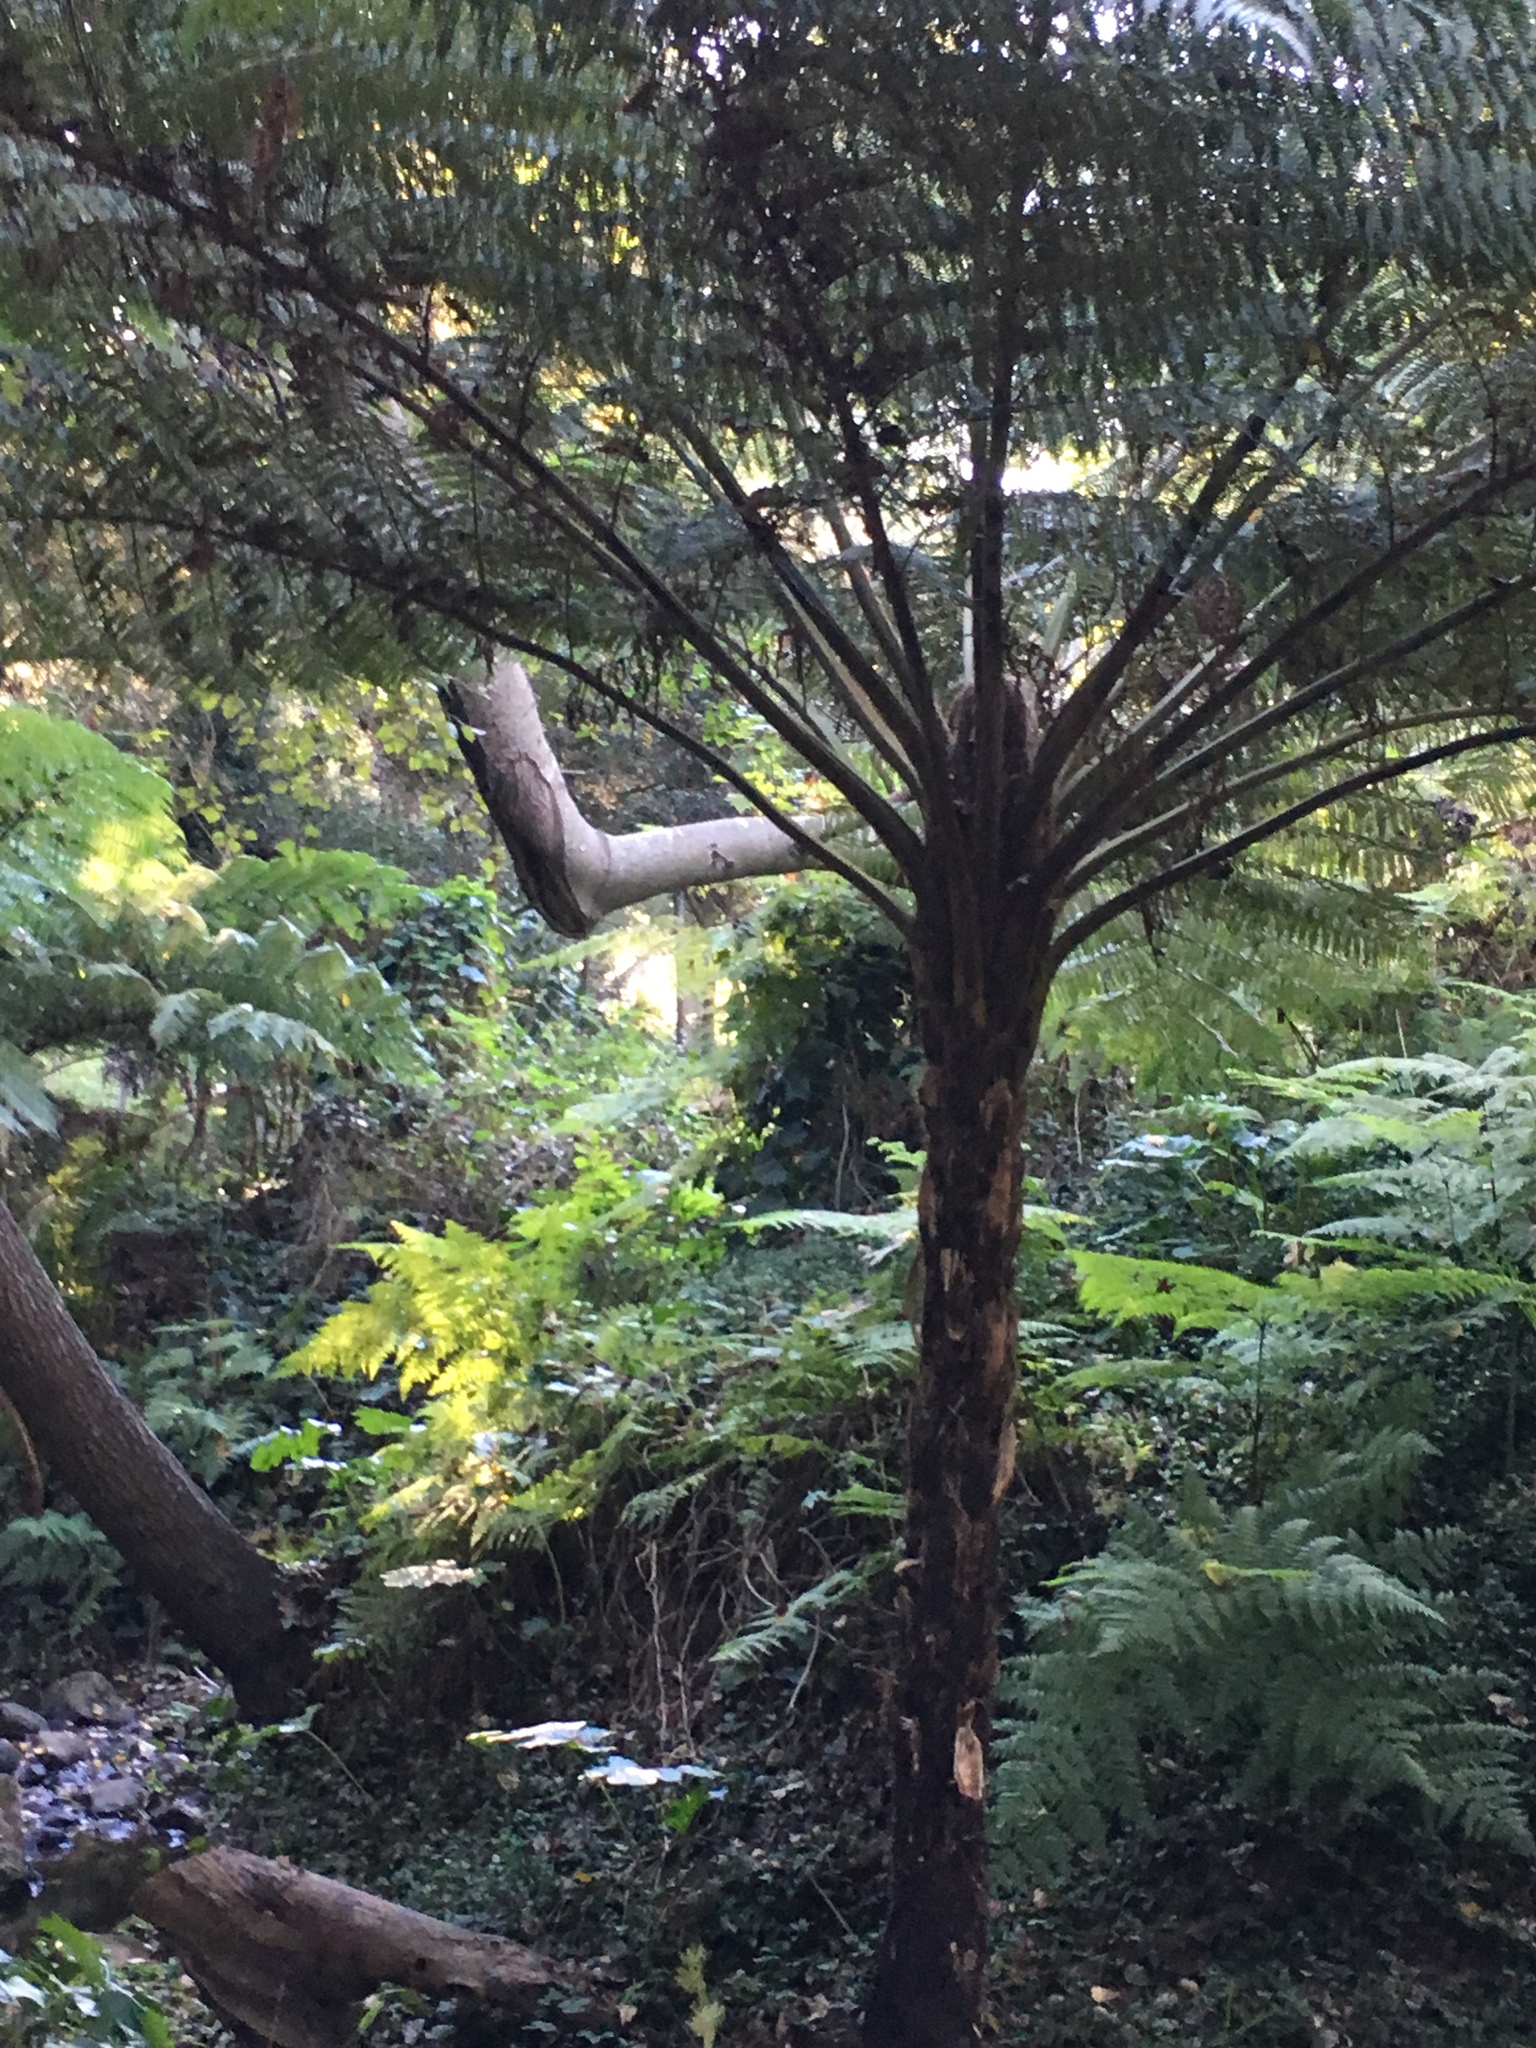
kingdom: Plantae
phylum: Tracheophyta
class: Polypodiopsida
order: Cyatheales
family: Cyatheaceae
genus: Sphaeropteris
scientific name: Sphaeropteris cooperi
